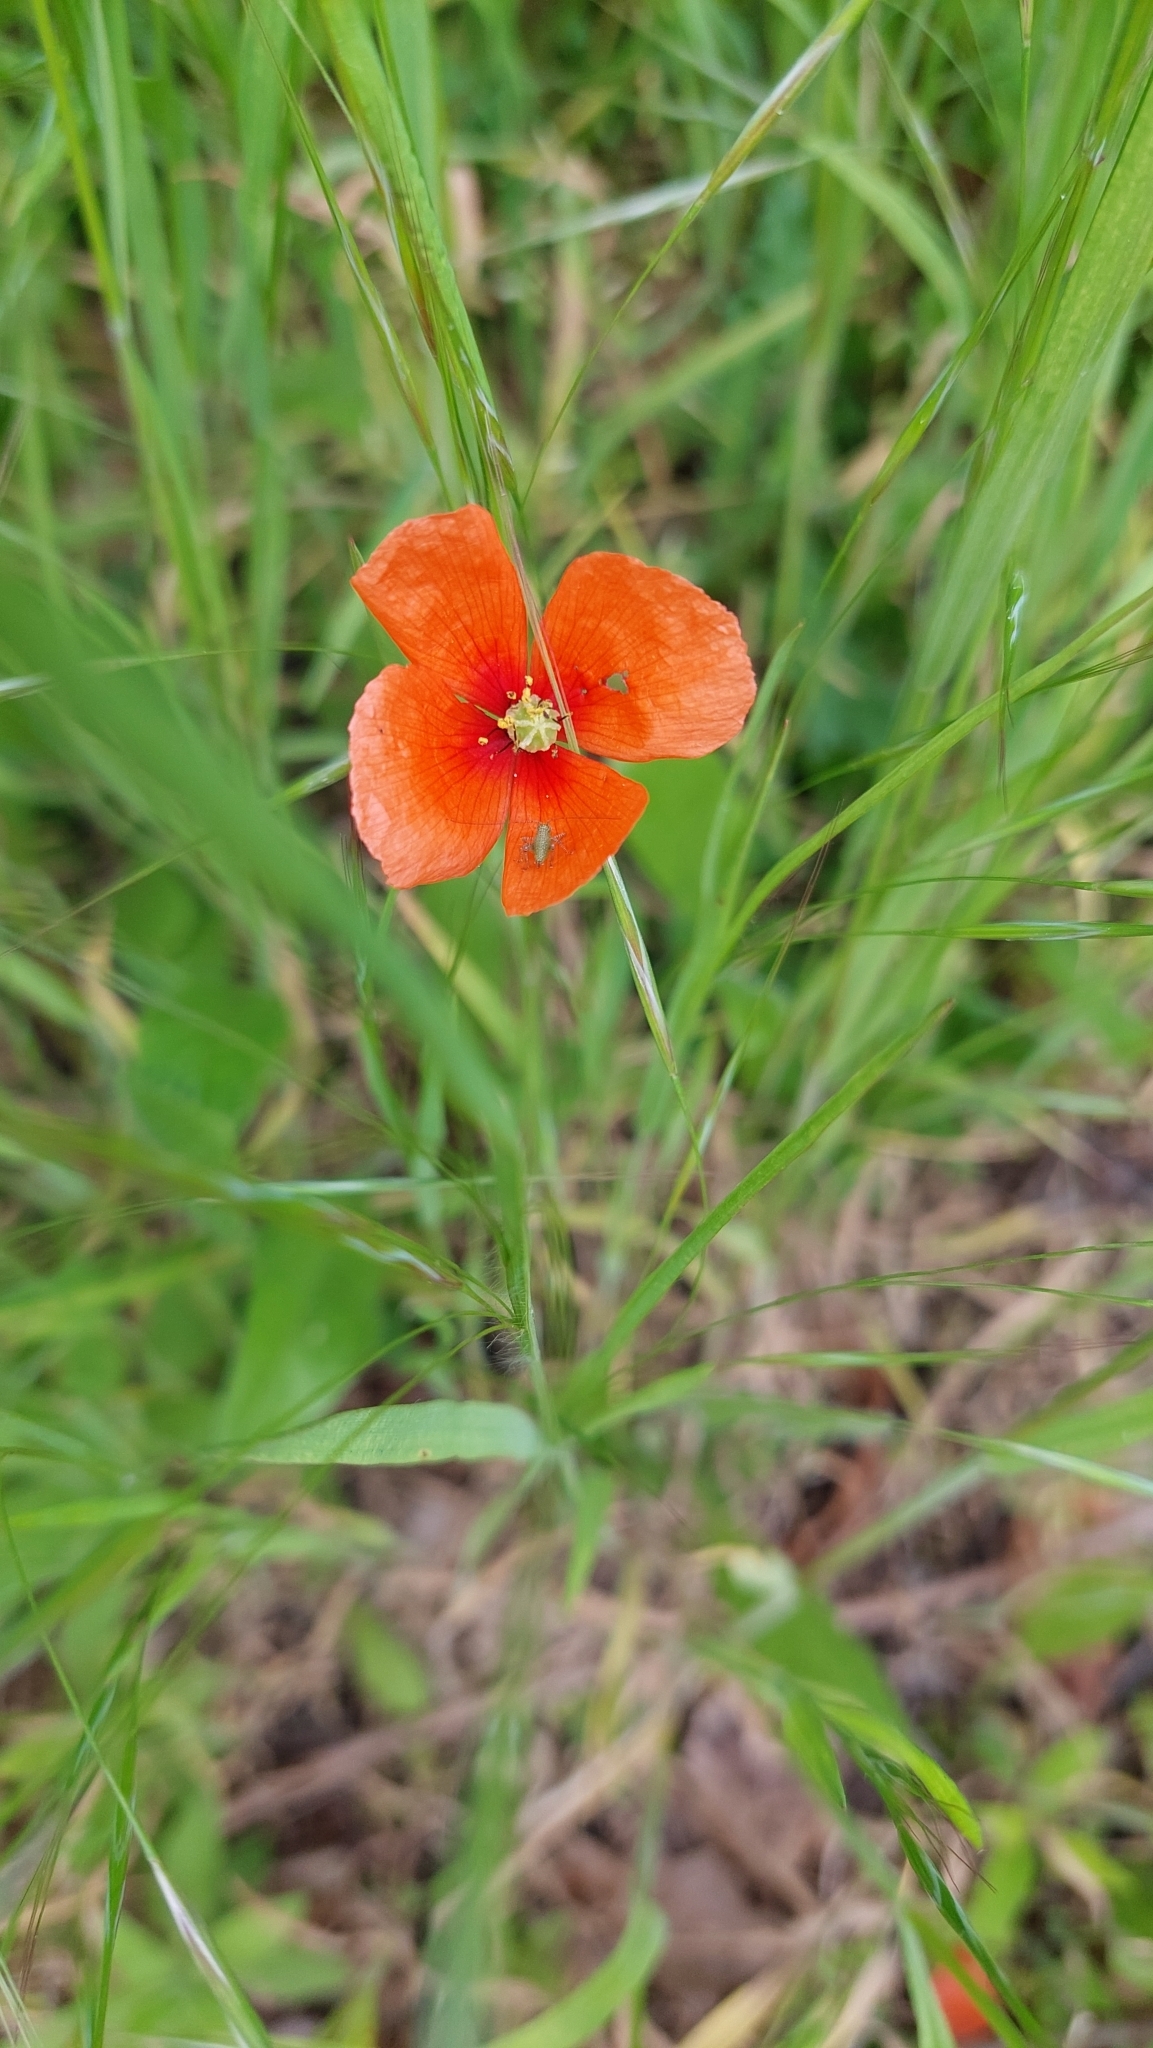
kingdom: Plantae
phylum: Tracheophyta
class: Magnoliopsida
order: Ranunculales
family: Papaveraceae
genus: Papaver
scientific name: Papaver dubium
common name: Long-headed poppy
